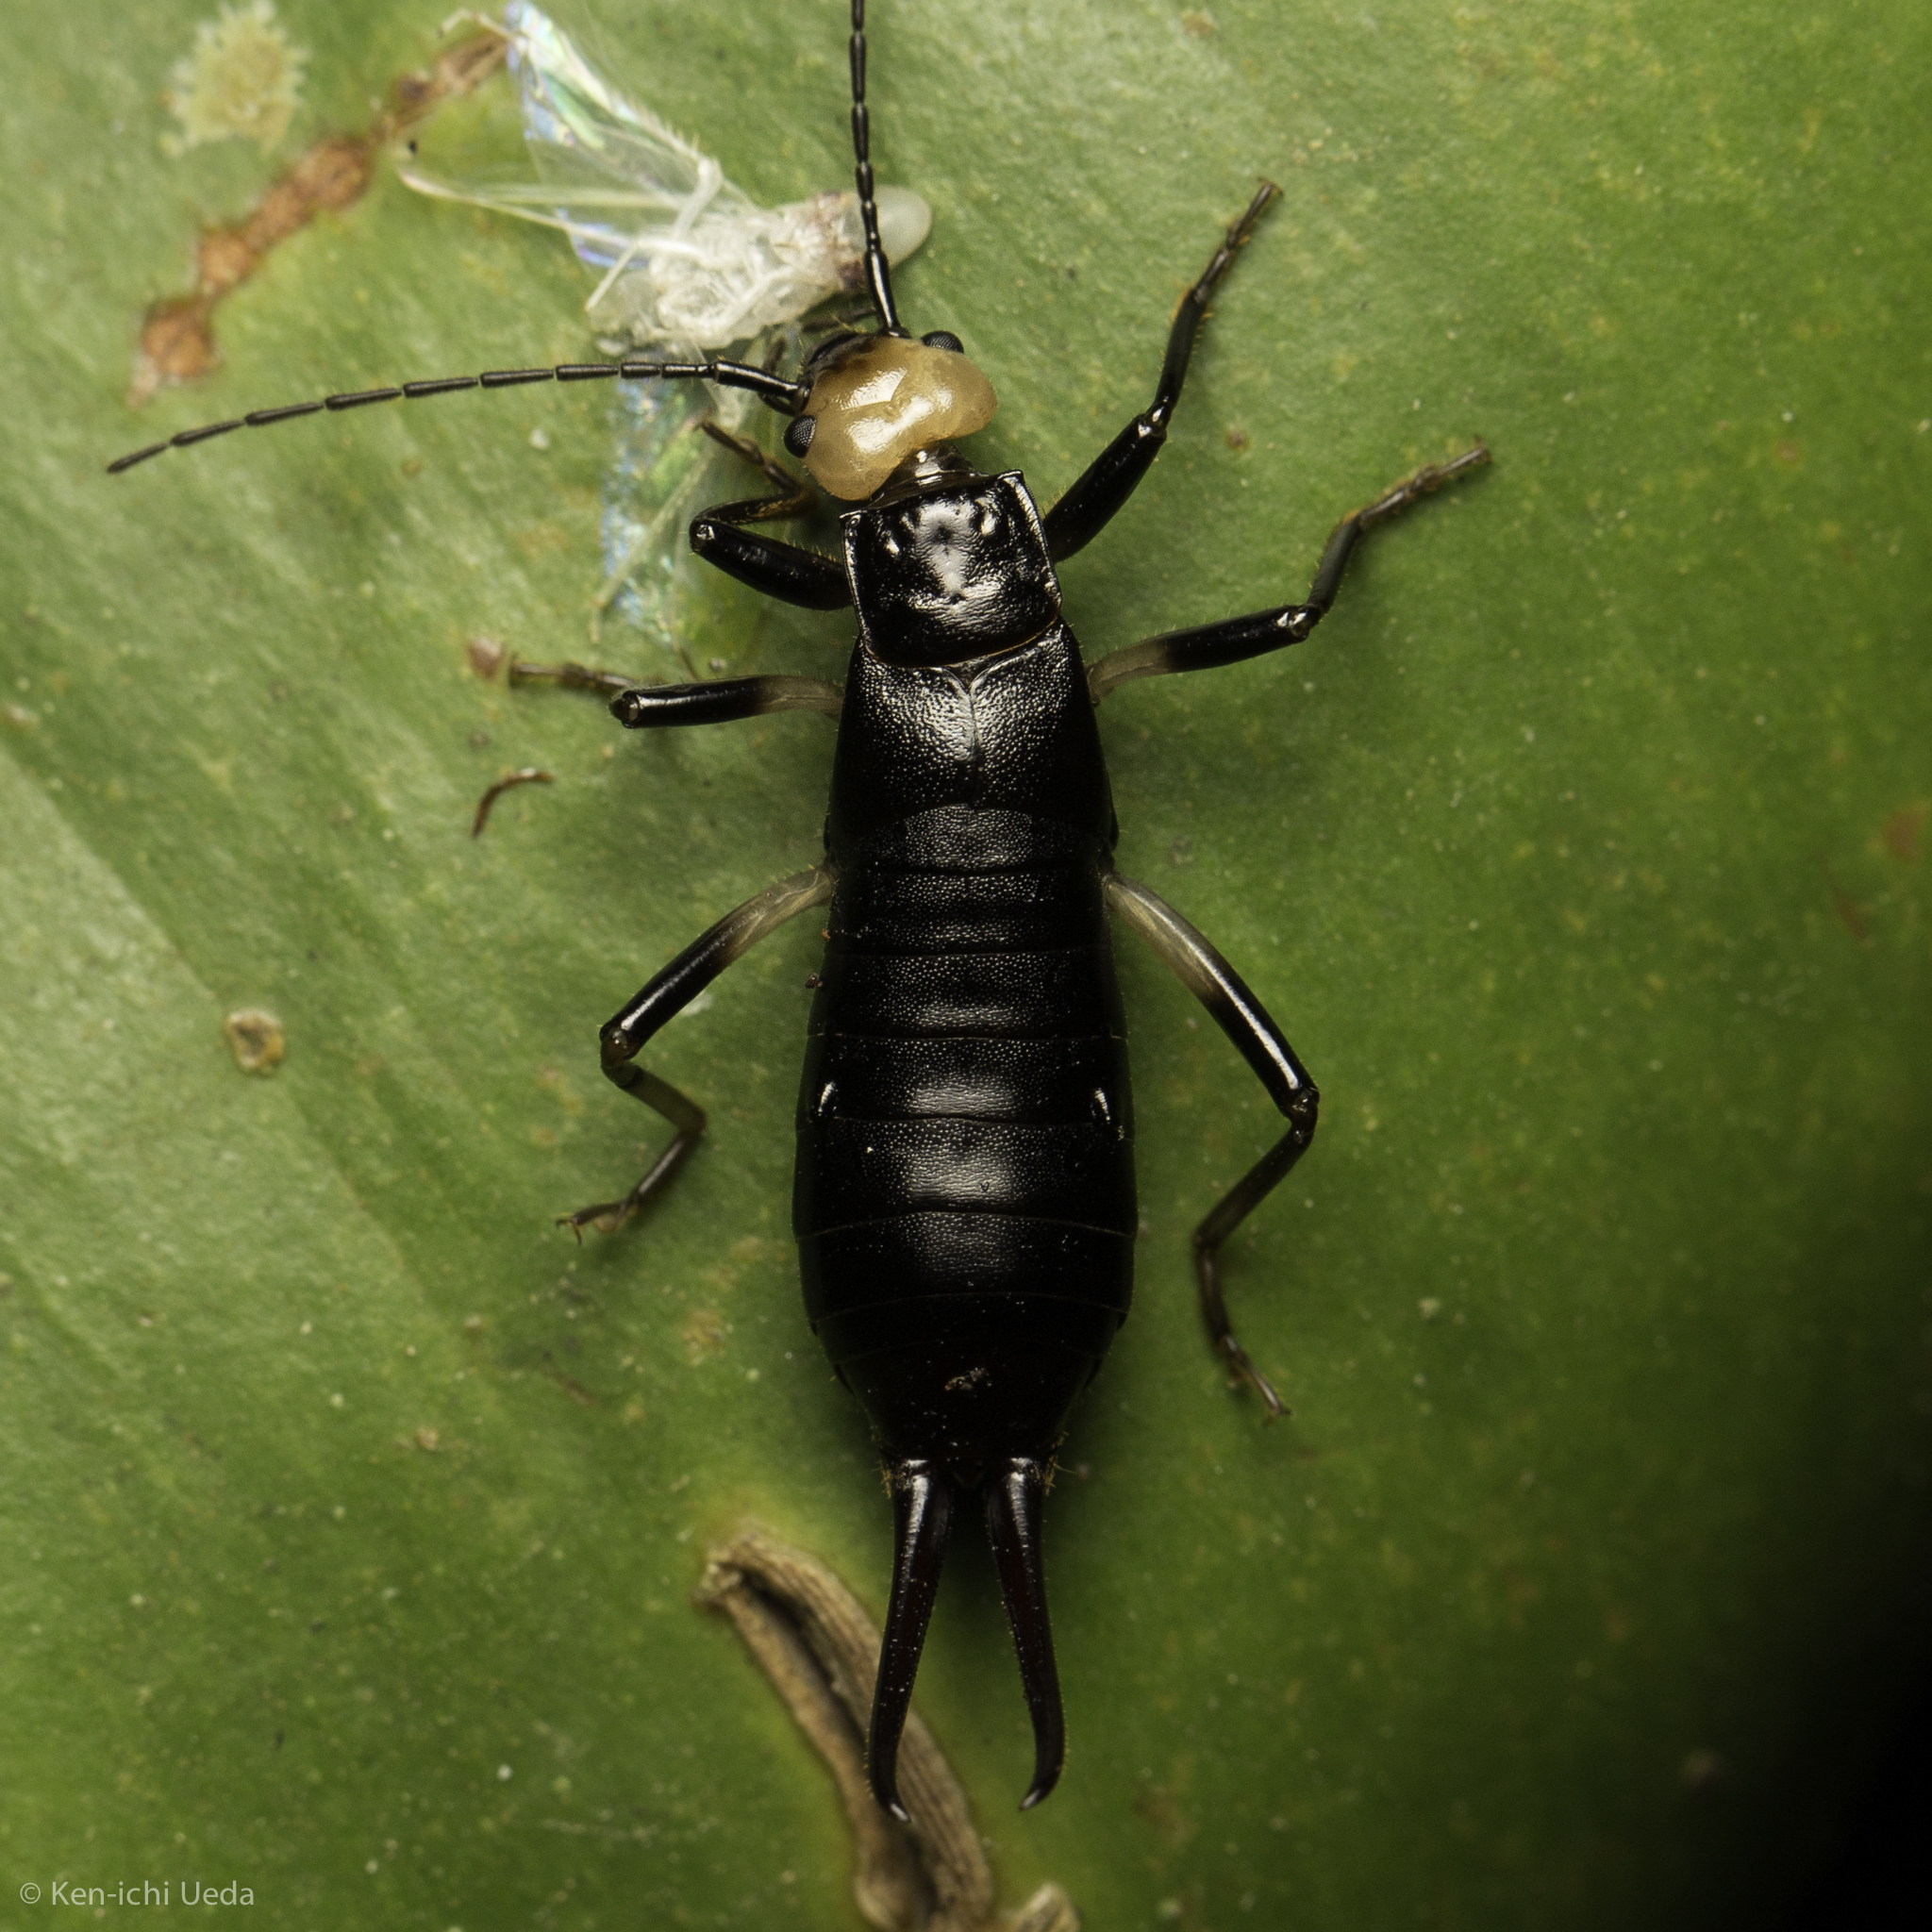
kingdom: Animalia
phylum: Arthropoda
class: Insecta
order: Dermaptera
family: Forficulidae
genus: Metresura
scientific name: Metresura flavipes
